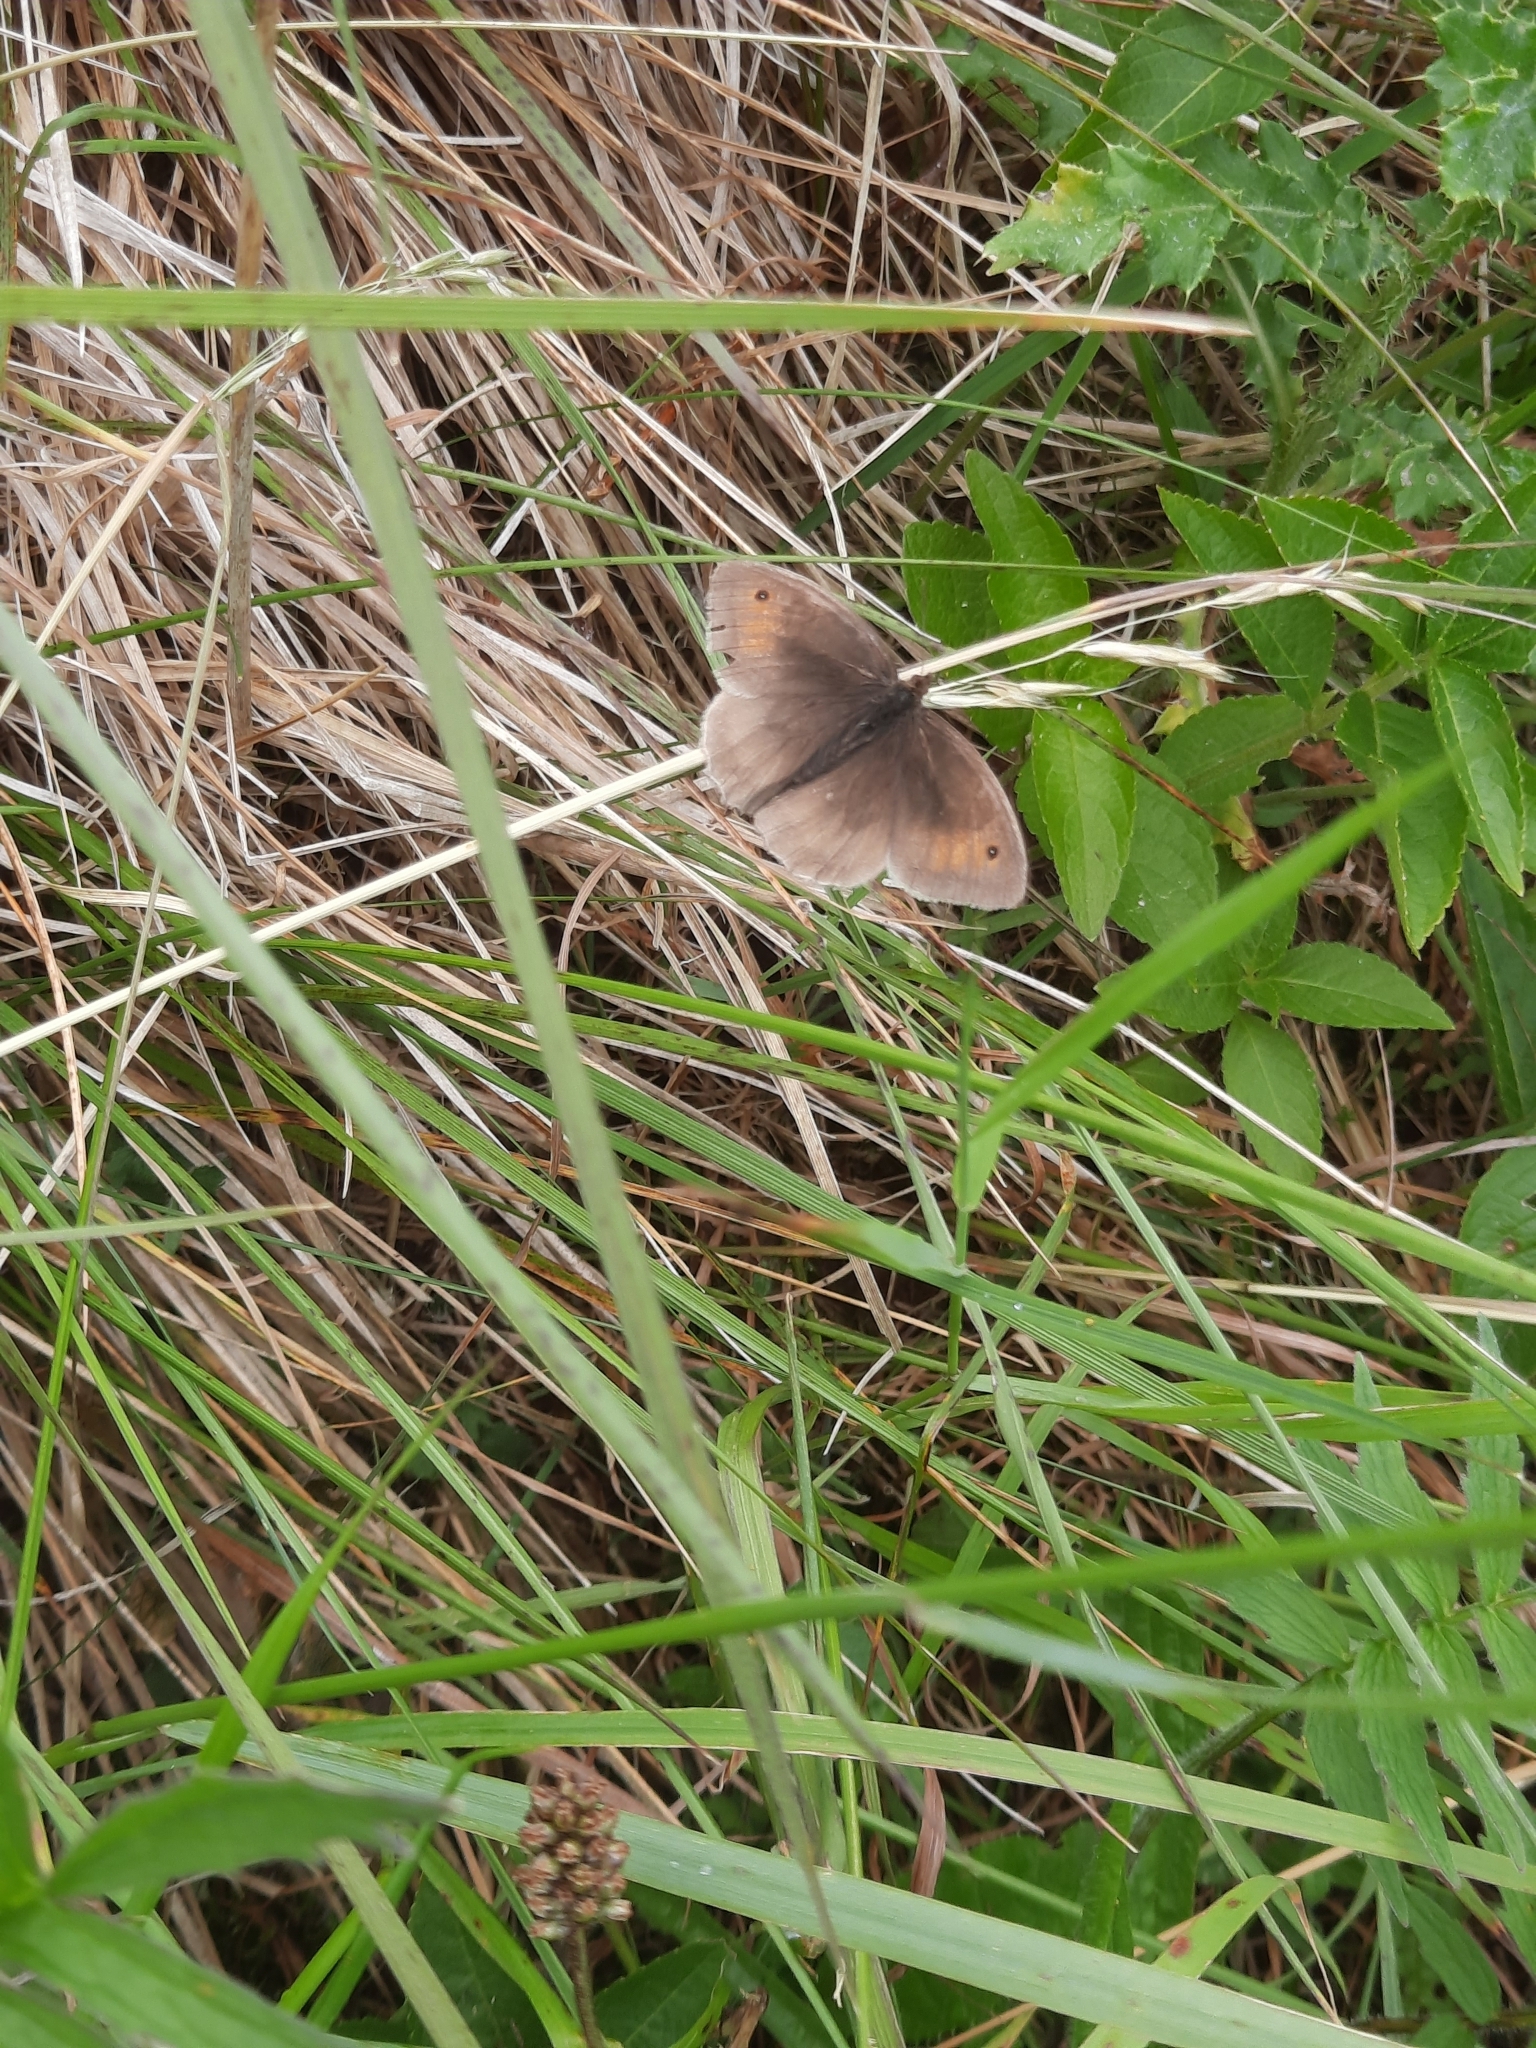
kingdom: Animalia
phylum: Arthropoda
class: Insecta
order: Lepidoptera
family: Nymphalidae
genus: Maniola
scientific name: Maniola jurtina
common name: Meadow brown
